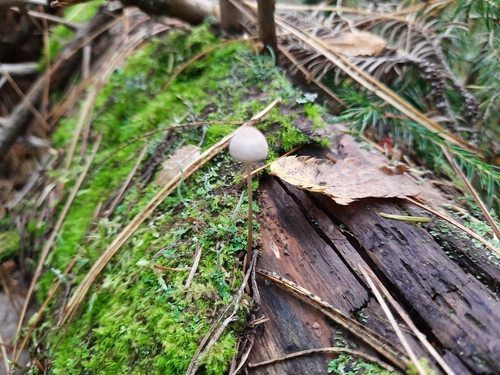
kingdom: Fungi
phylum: Basidiomycota
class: Agaricomycetes
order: Agaricales
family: Mycenaceae
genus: Mycena
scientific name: Mycena galopus
